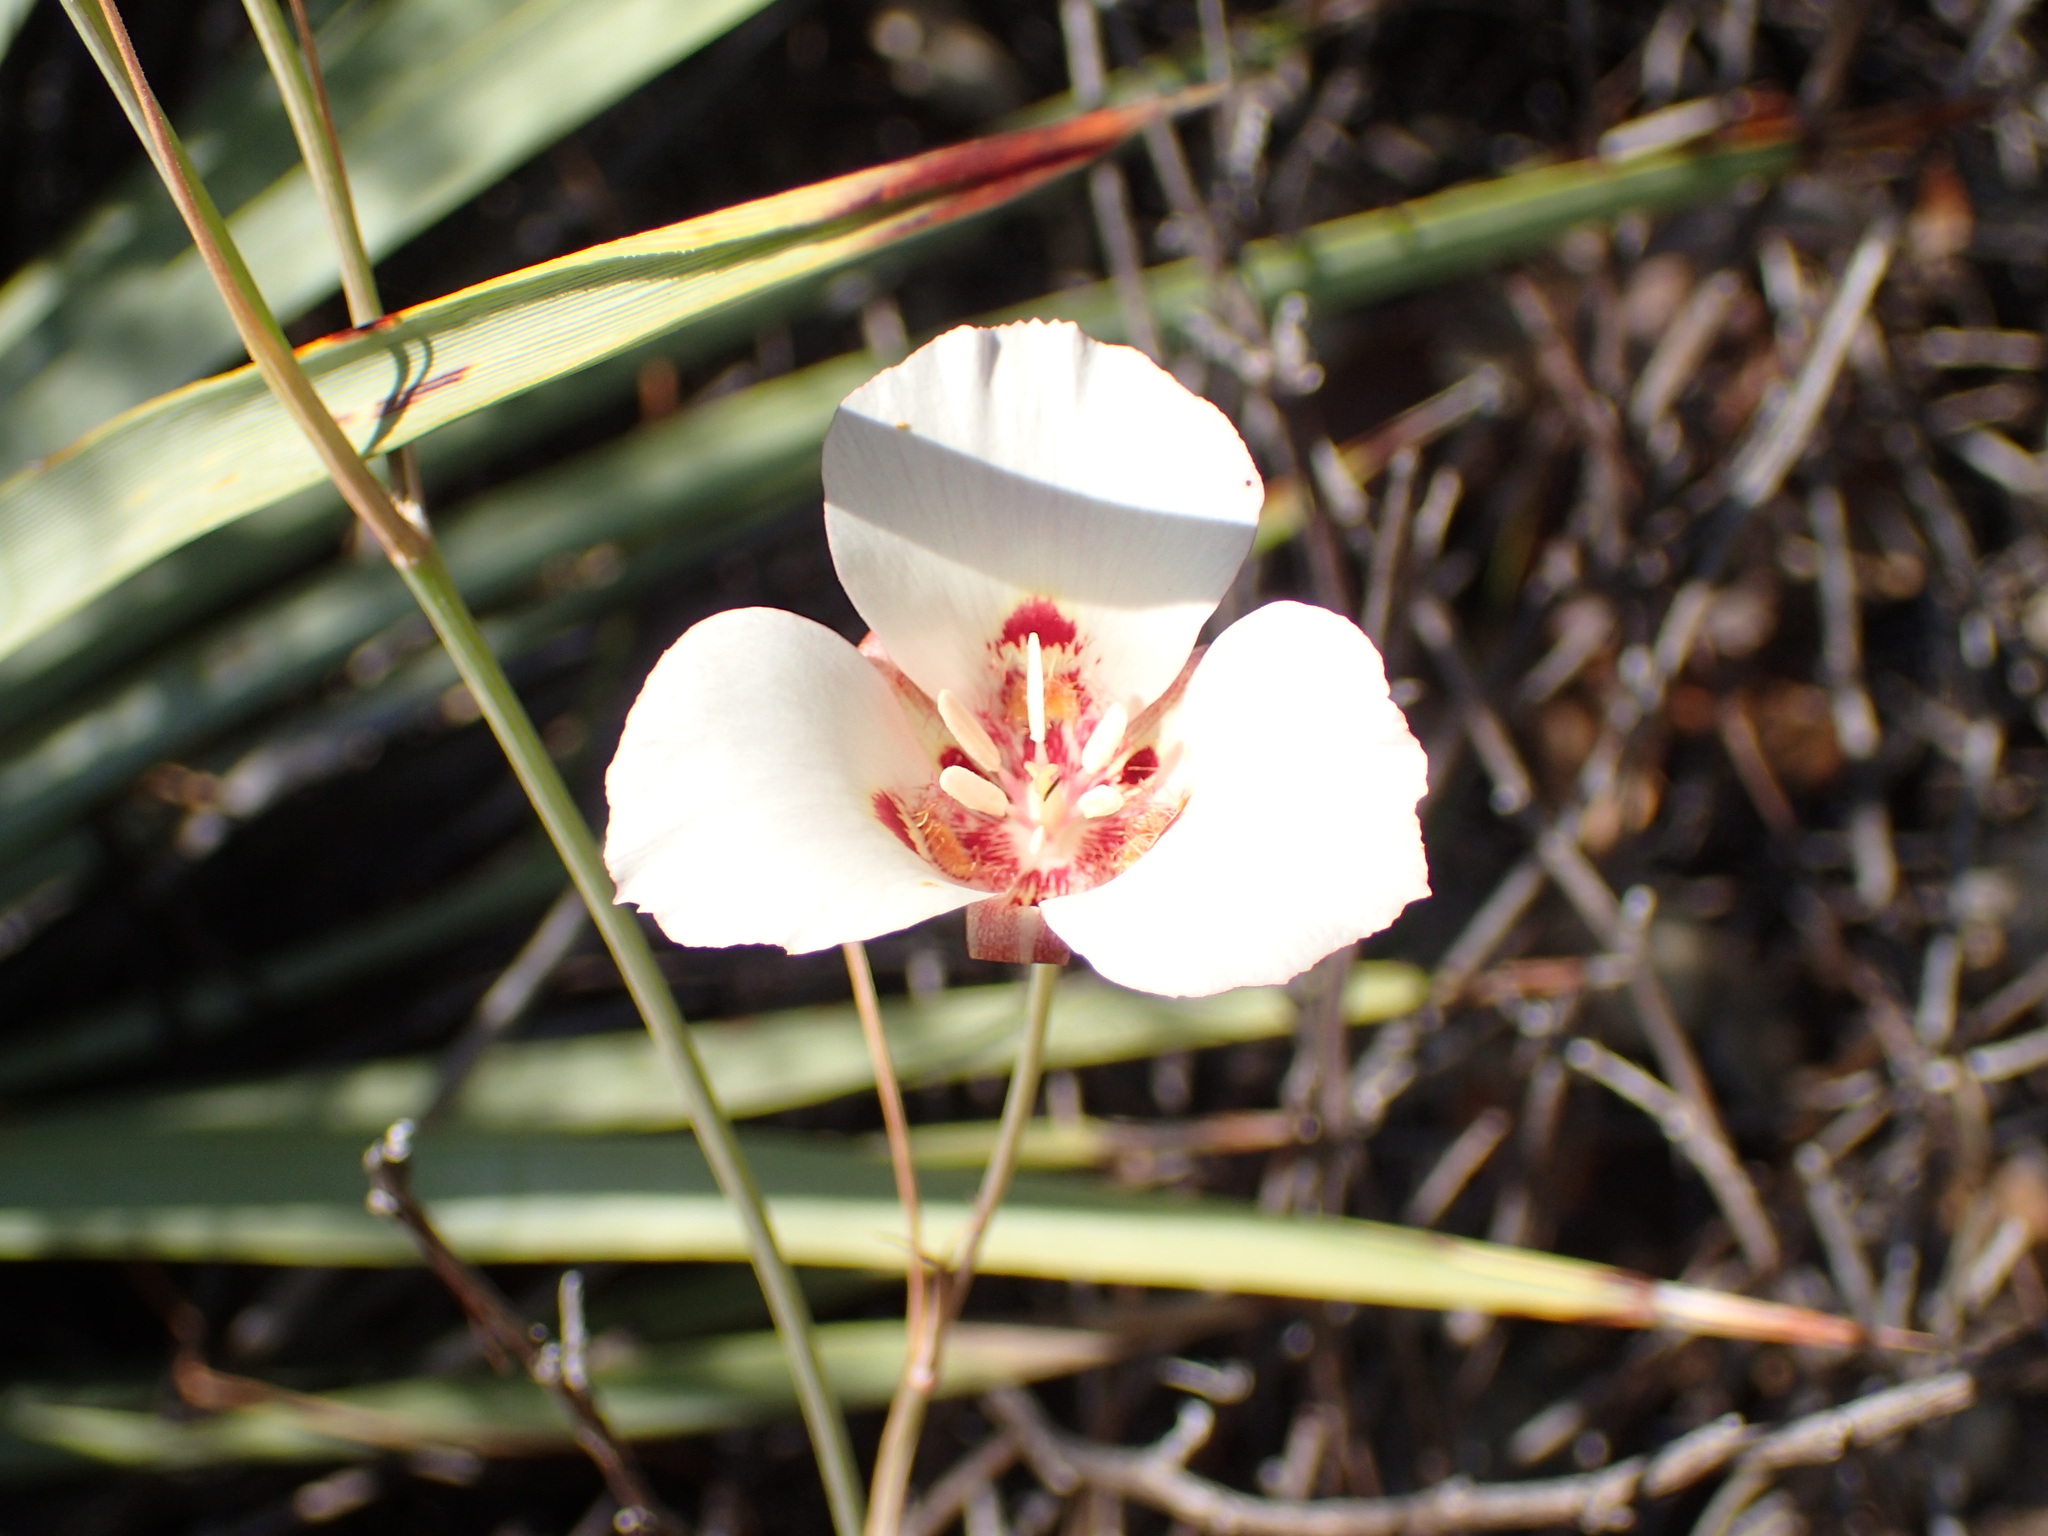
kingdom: Plantae
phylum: Tracheophyta
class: Liliopsida
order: Liliales
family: Liliaceae
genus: Calochortus
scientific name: Calochortus venustus
